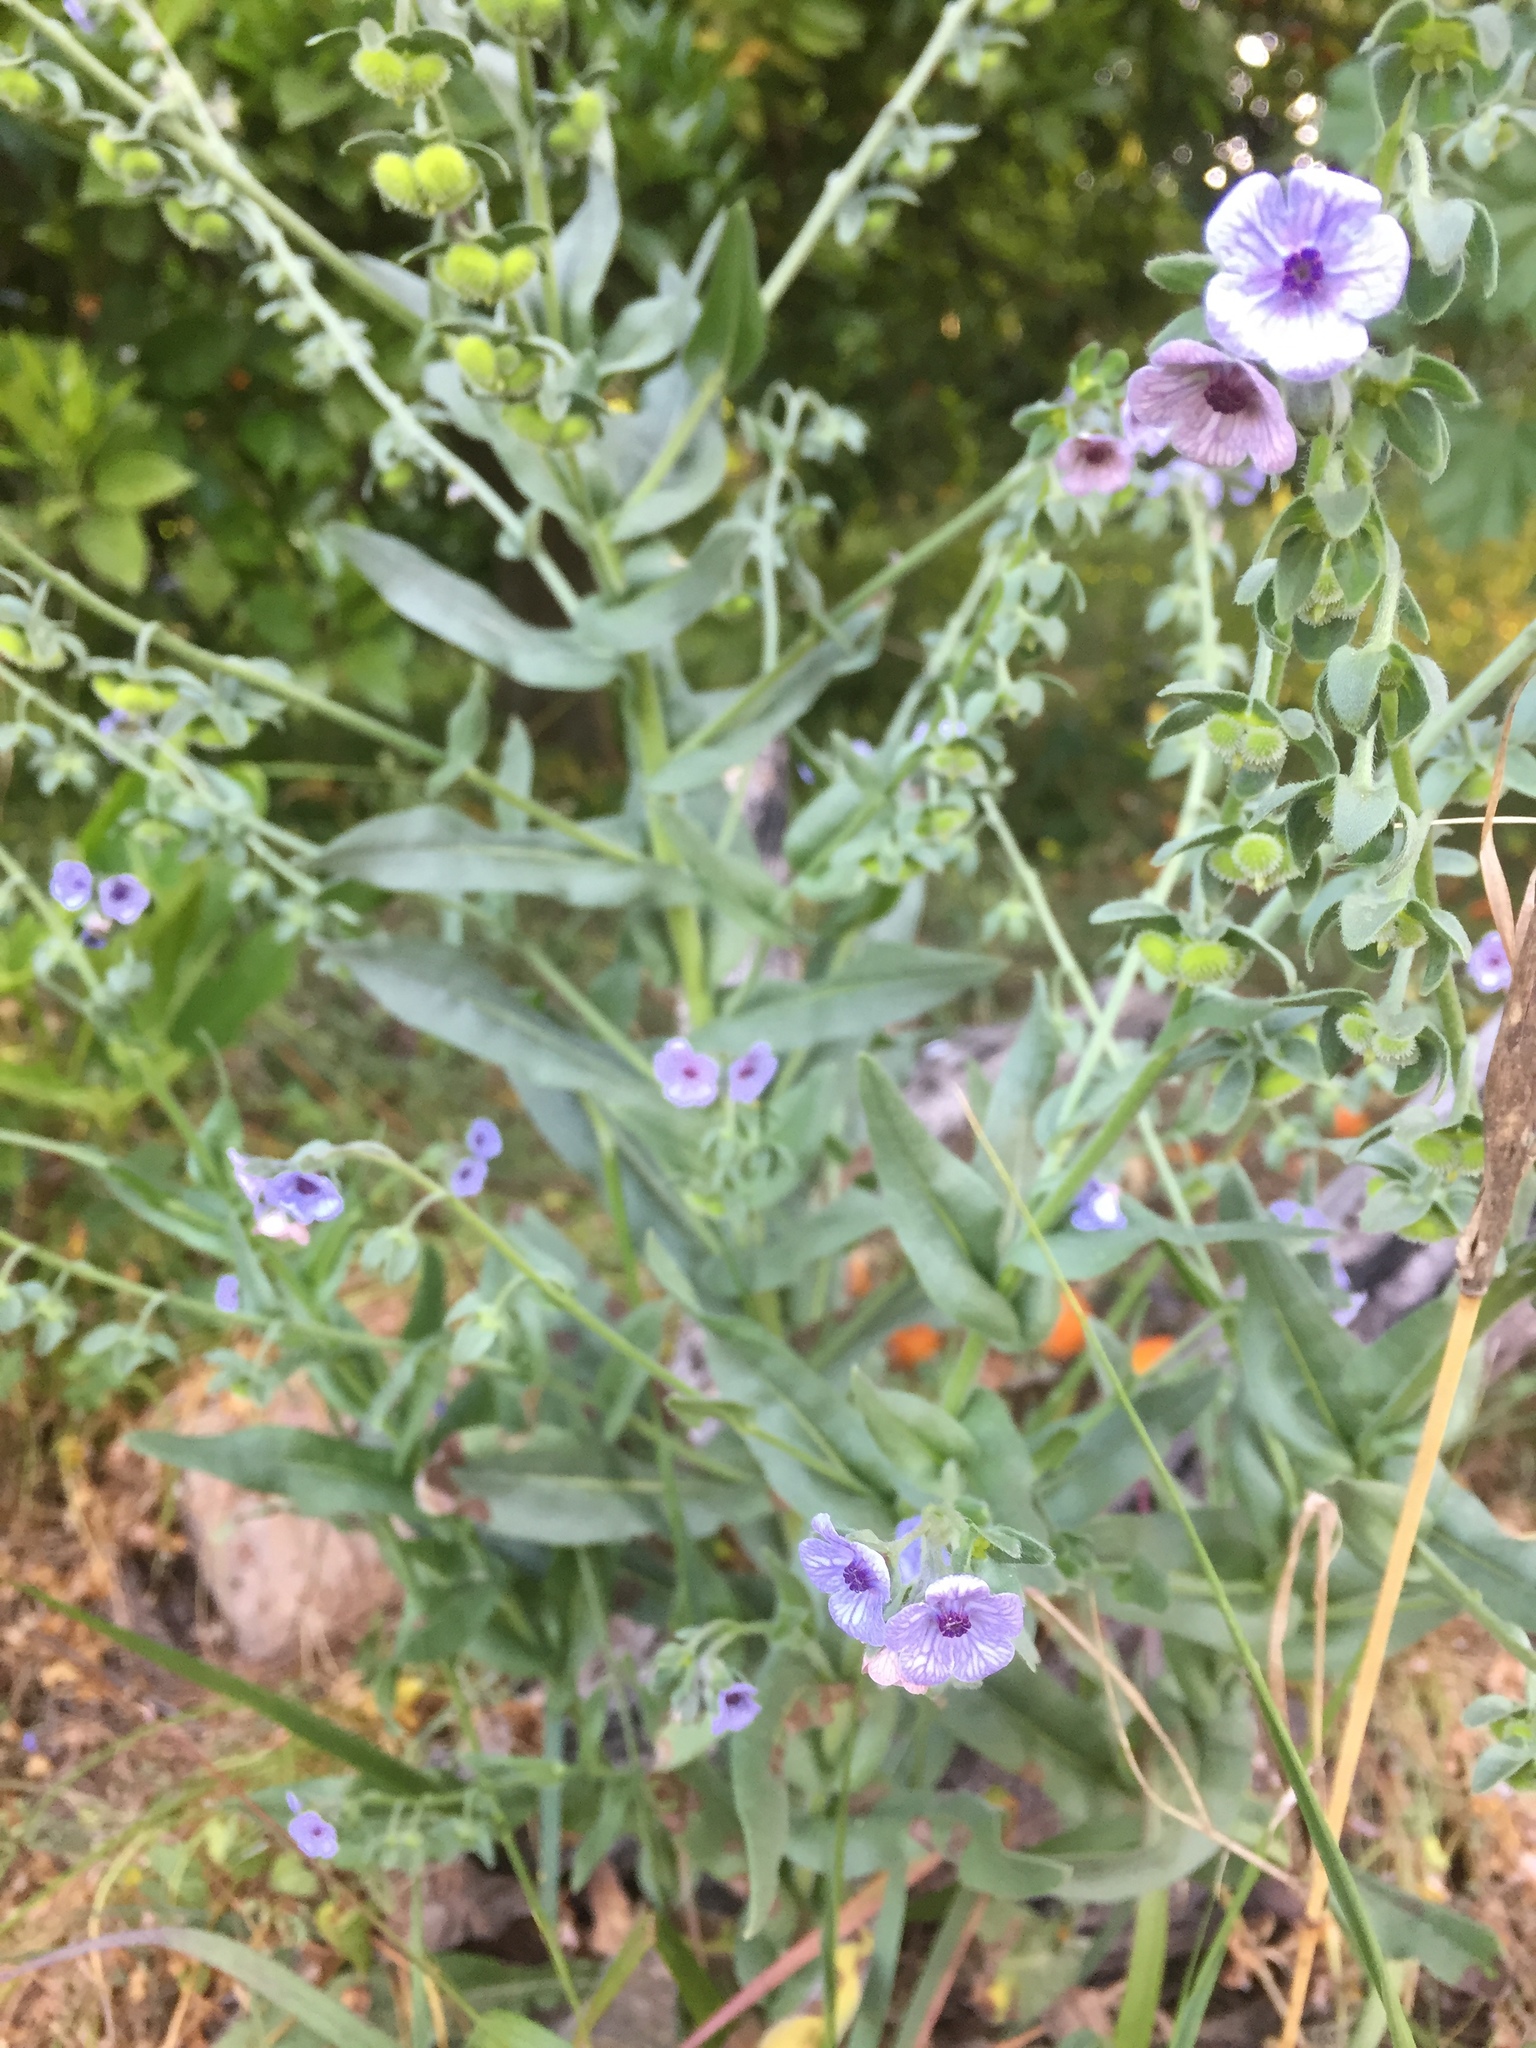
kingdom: Plantae
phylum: Tracheophyta
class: Magnoliopsida
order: Boraginales
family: Boraginaceae
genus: Cynoglossum
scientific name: Cynoglossum creticum
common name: Blue hound's tongue
